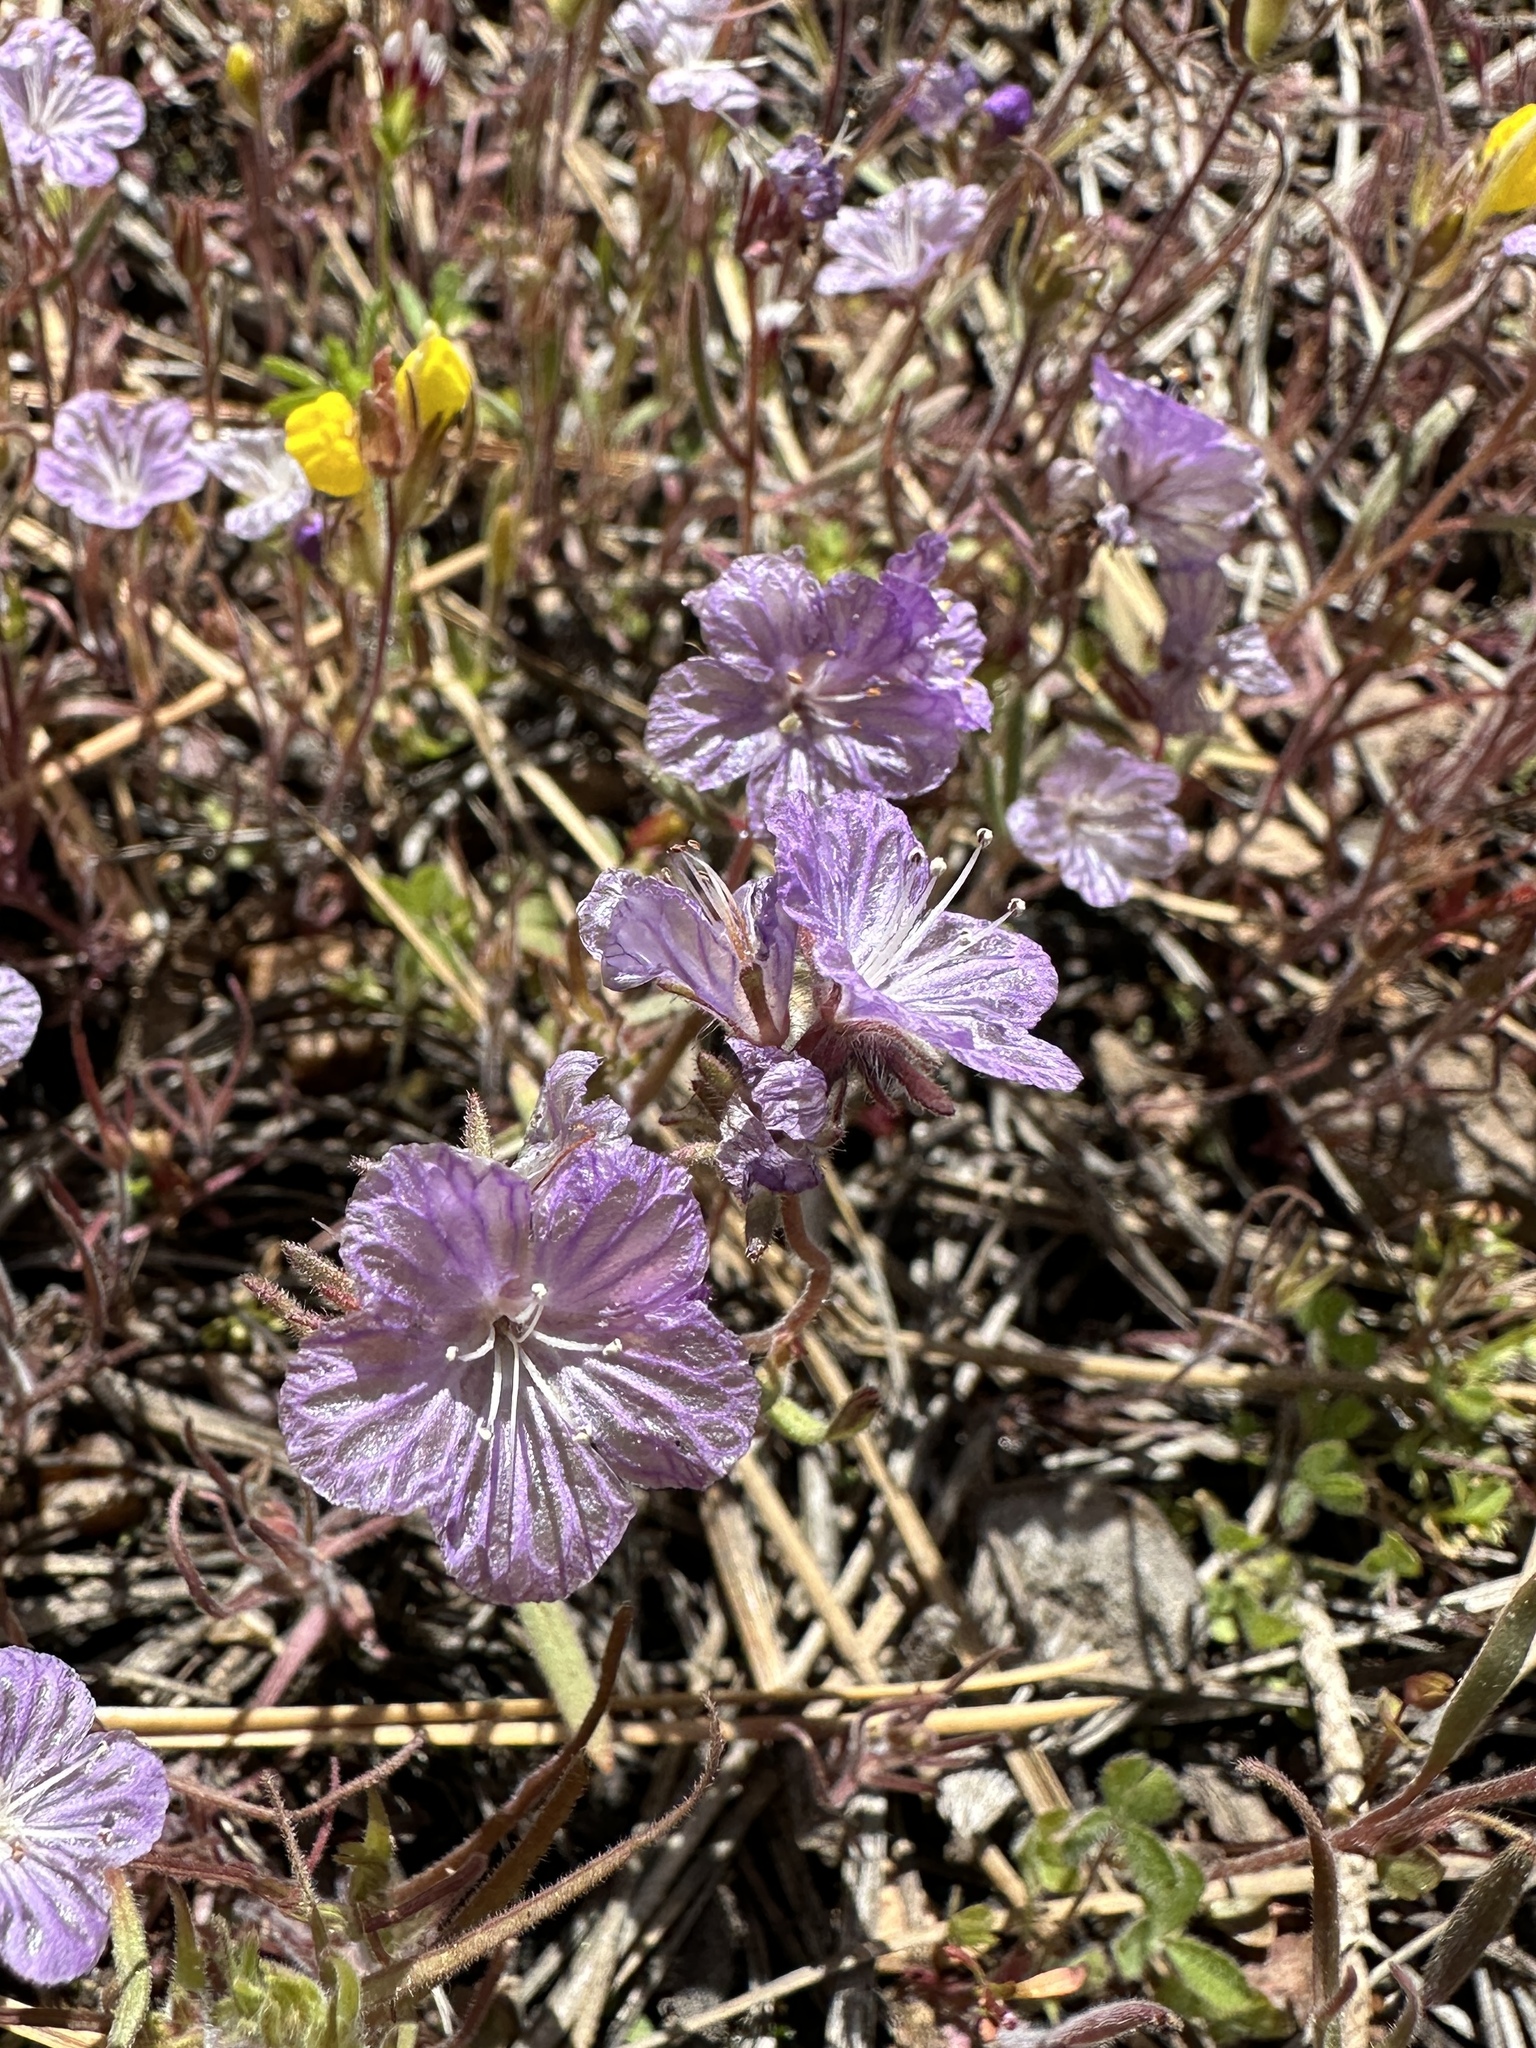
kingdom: Plantae
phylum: Tracheophyta
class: Magnoliopsida
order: Boraginales
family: Hydrophyllaceae
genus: Phacelia
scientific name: Phacelia exilis
